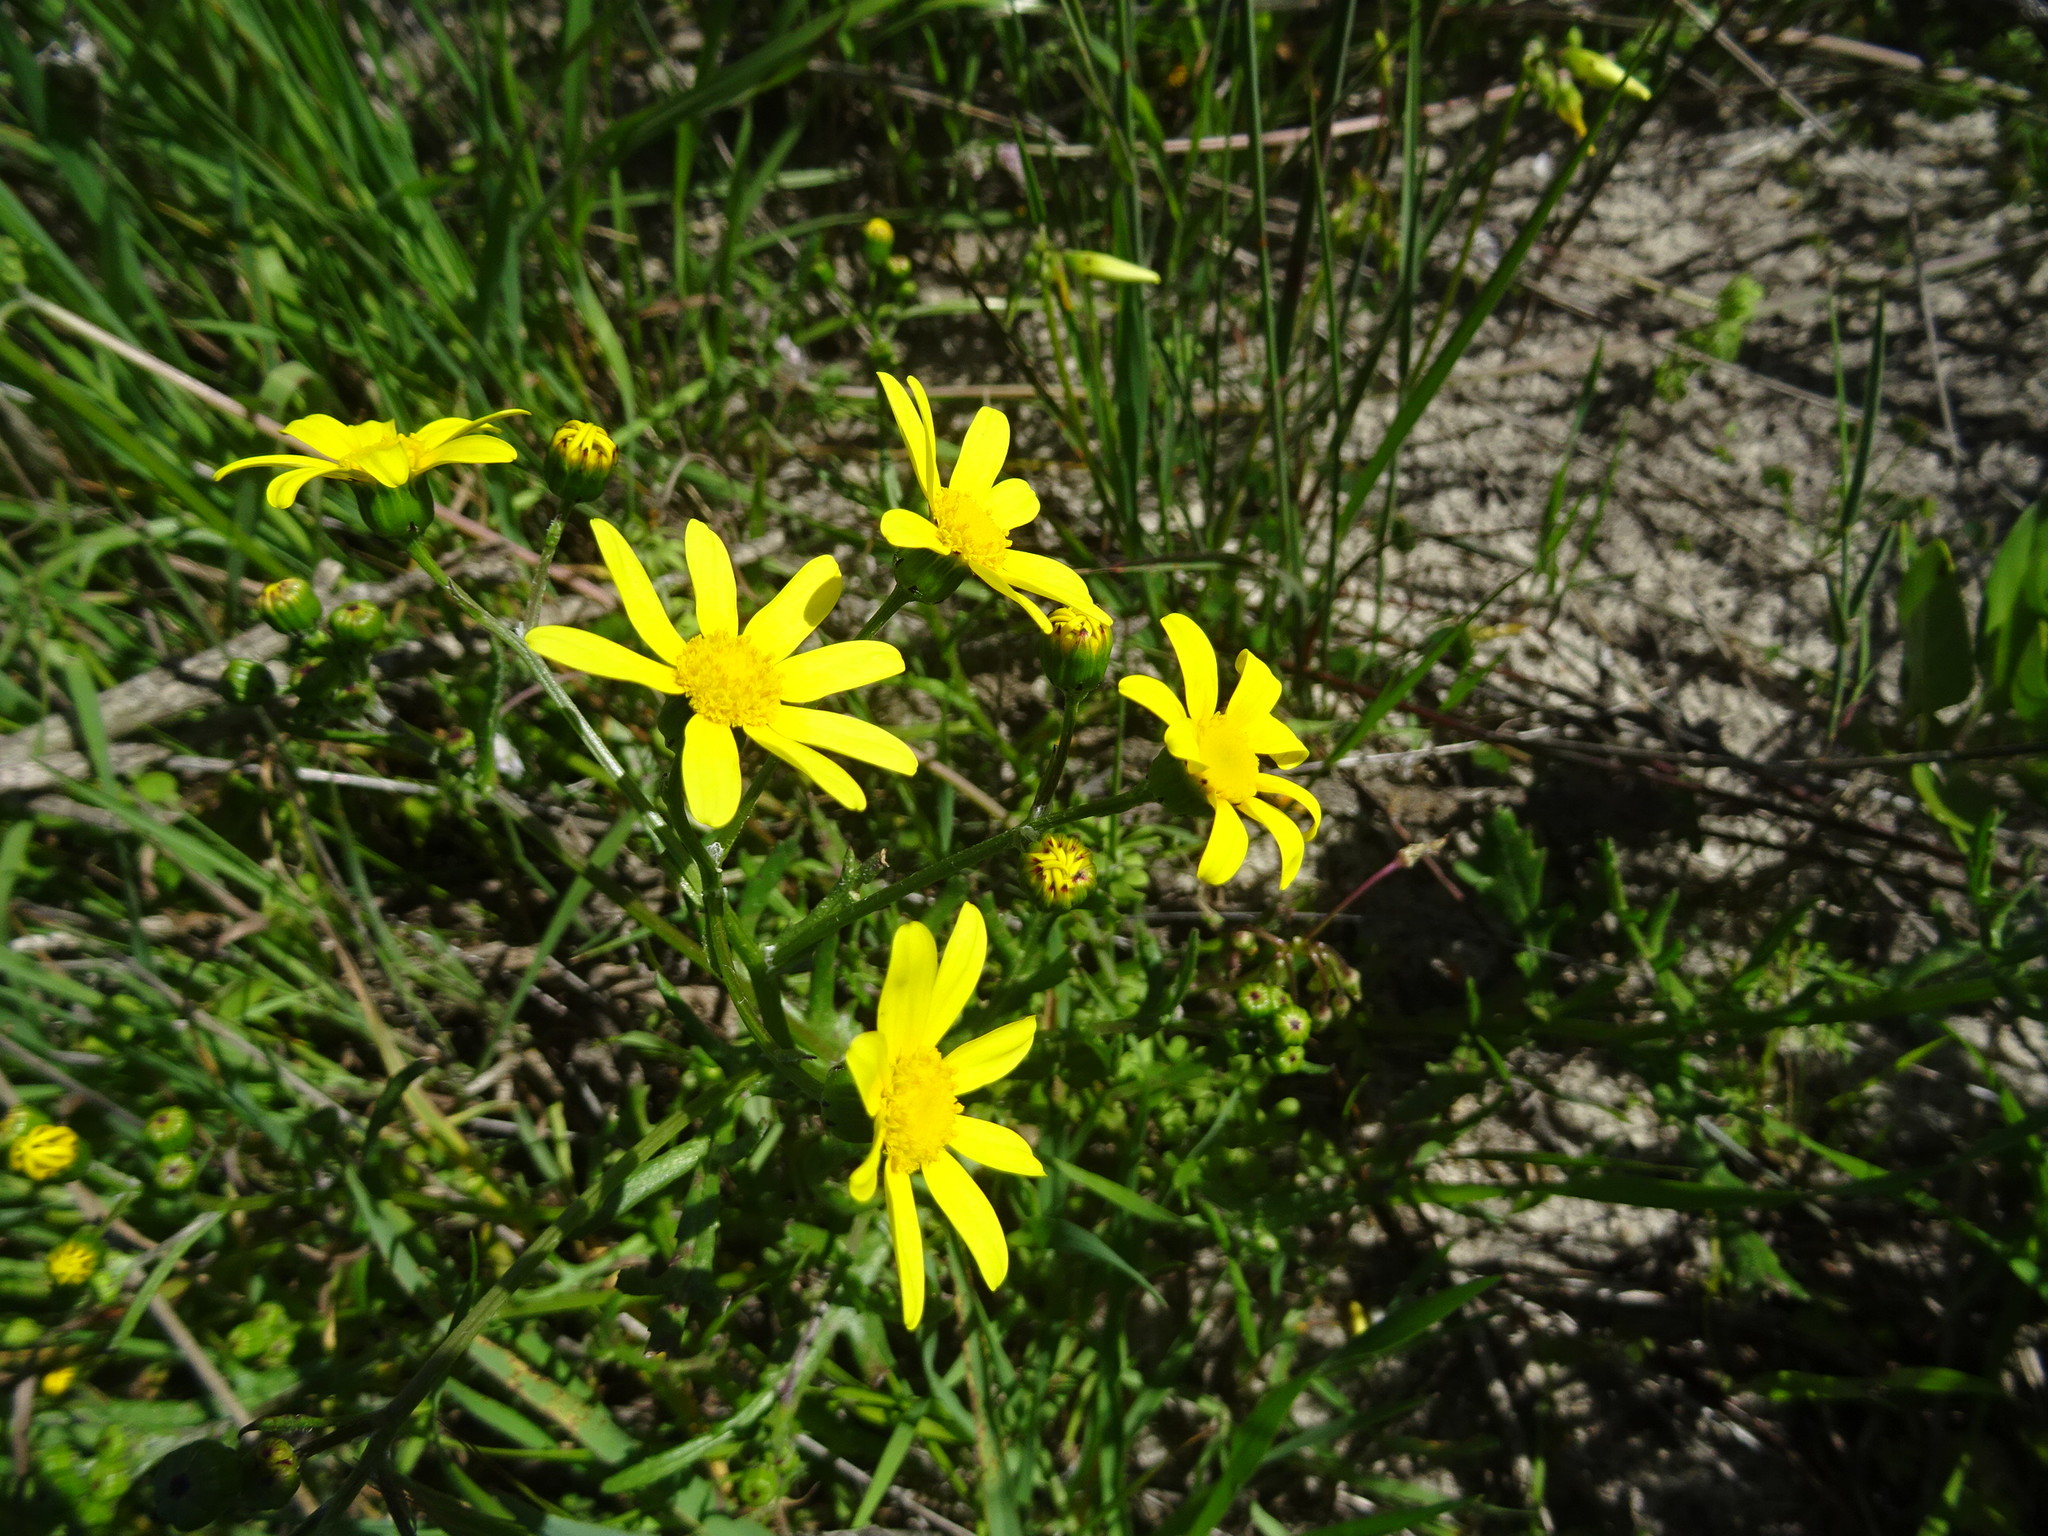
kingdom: Plantae
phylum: Tracheophyta
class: Magnoliopsida
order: Asterales
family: Asteraceae
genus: Senecio
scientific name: Senecio burchellii
